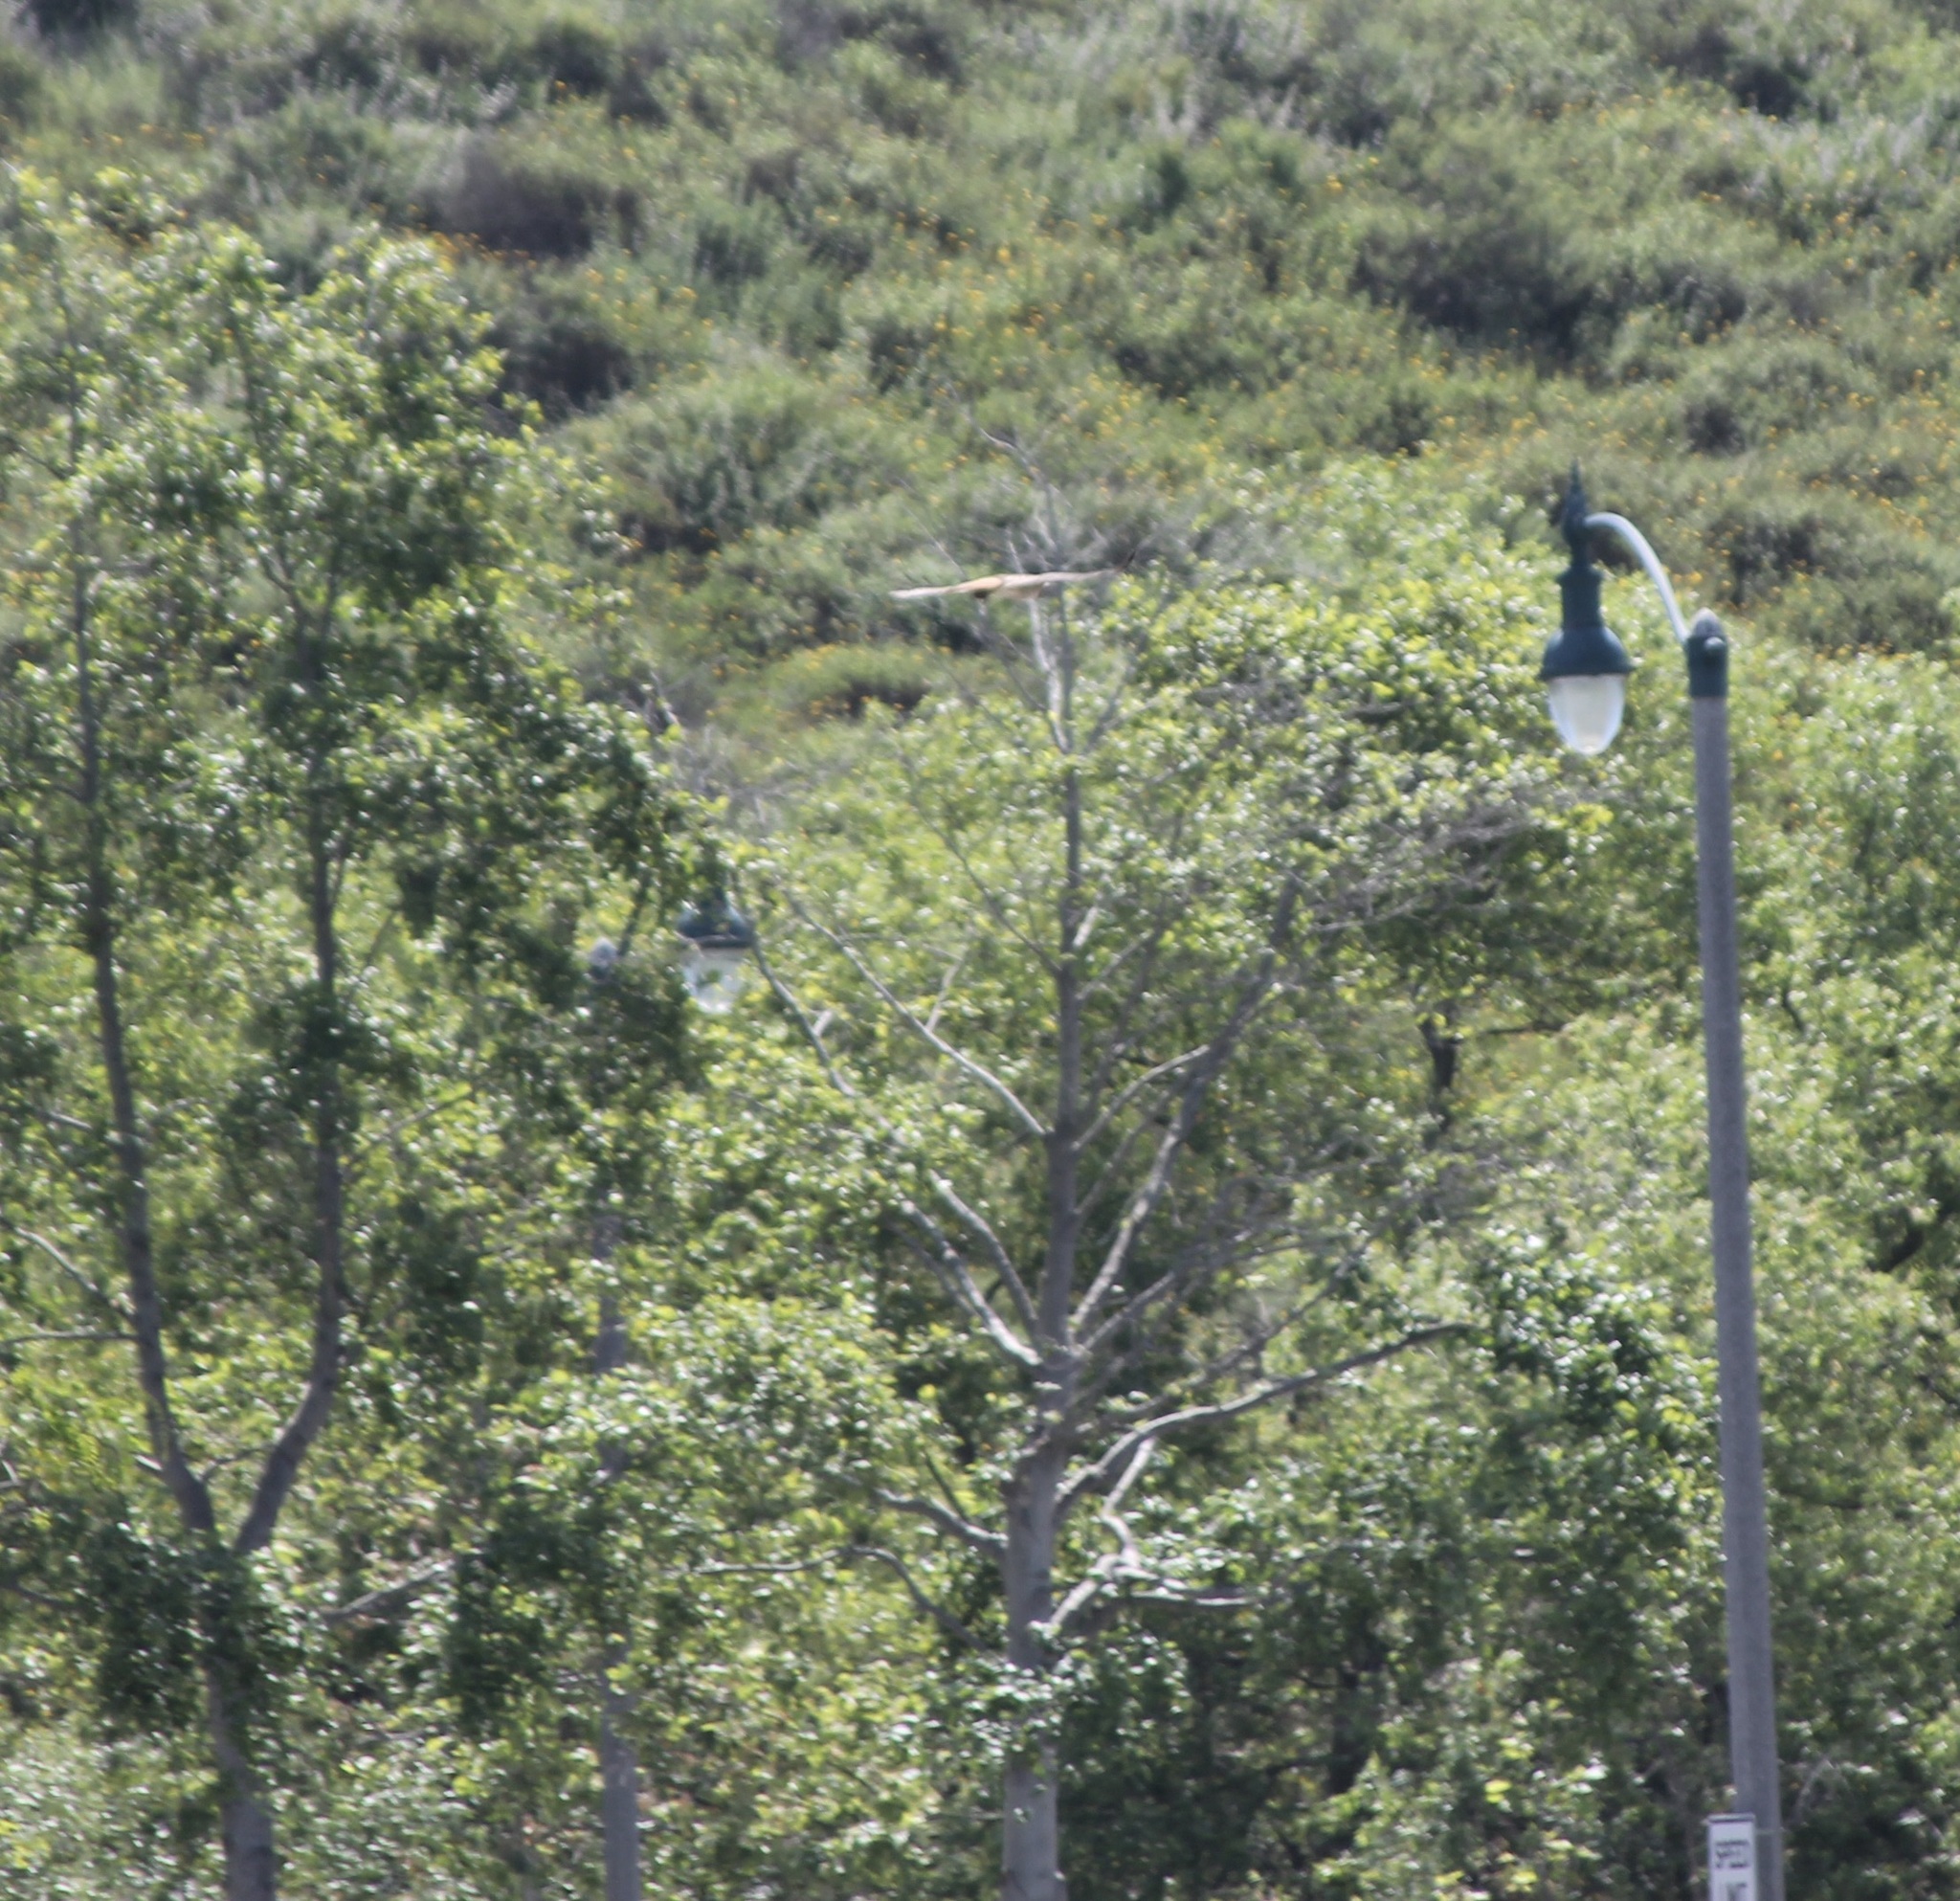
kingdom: Animalia
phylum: Chordata
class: Aves
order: Accipitriformes
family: Accipitridae
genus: Buteo
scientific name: Buteo jamaicensis
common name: Red-tailed hawk
